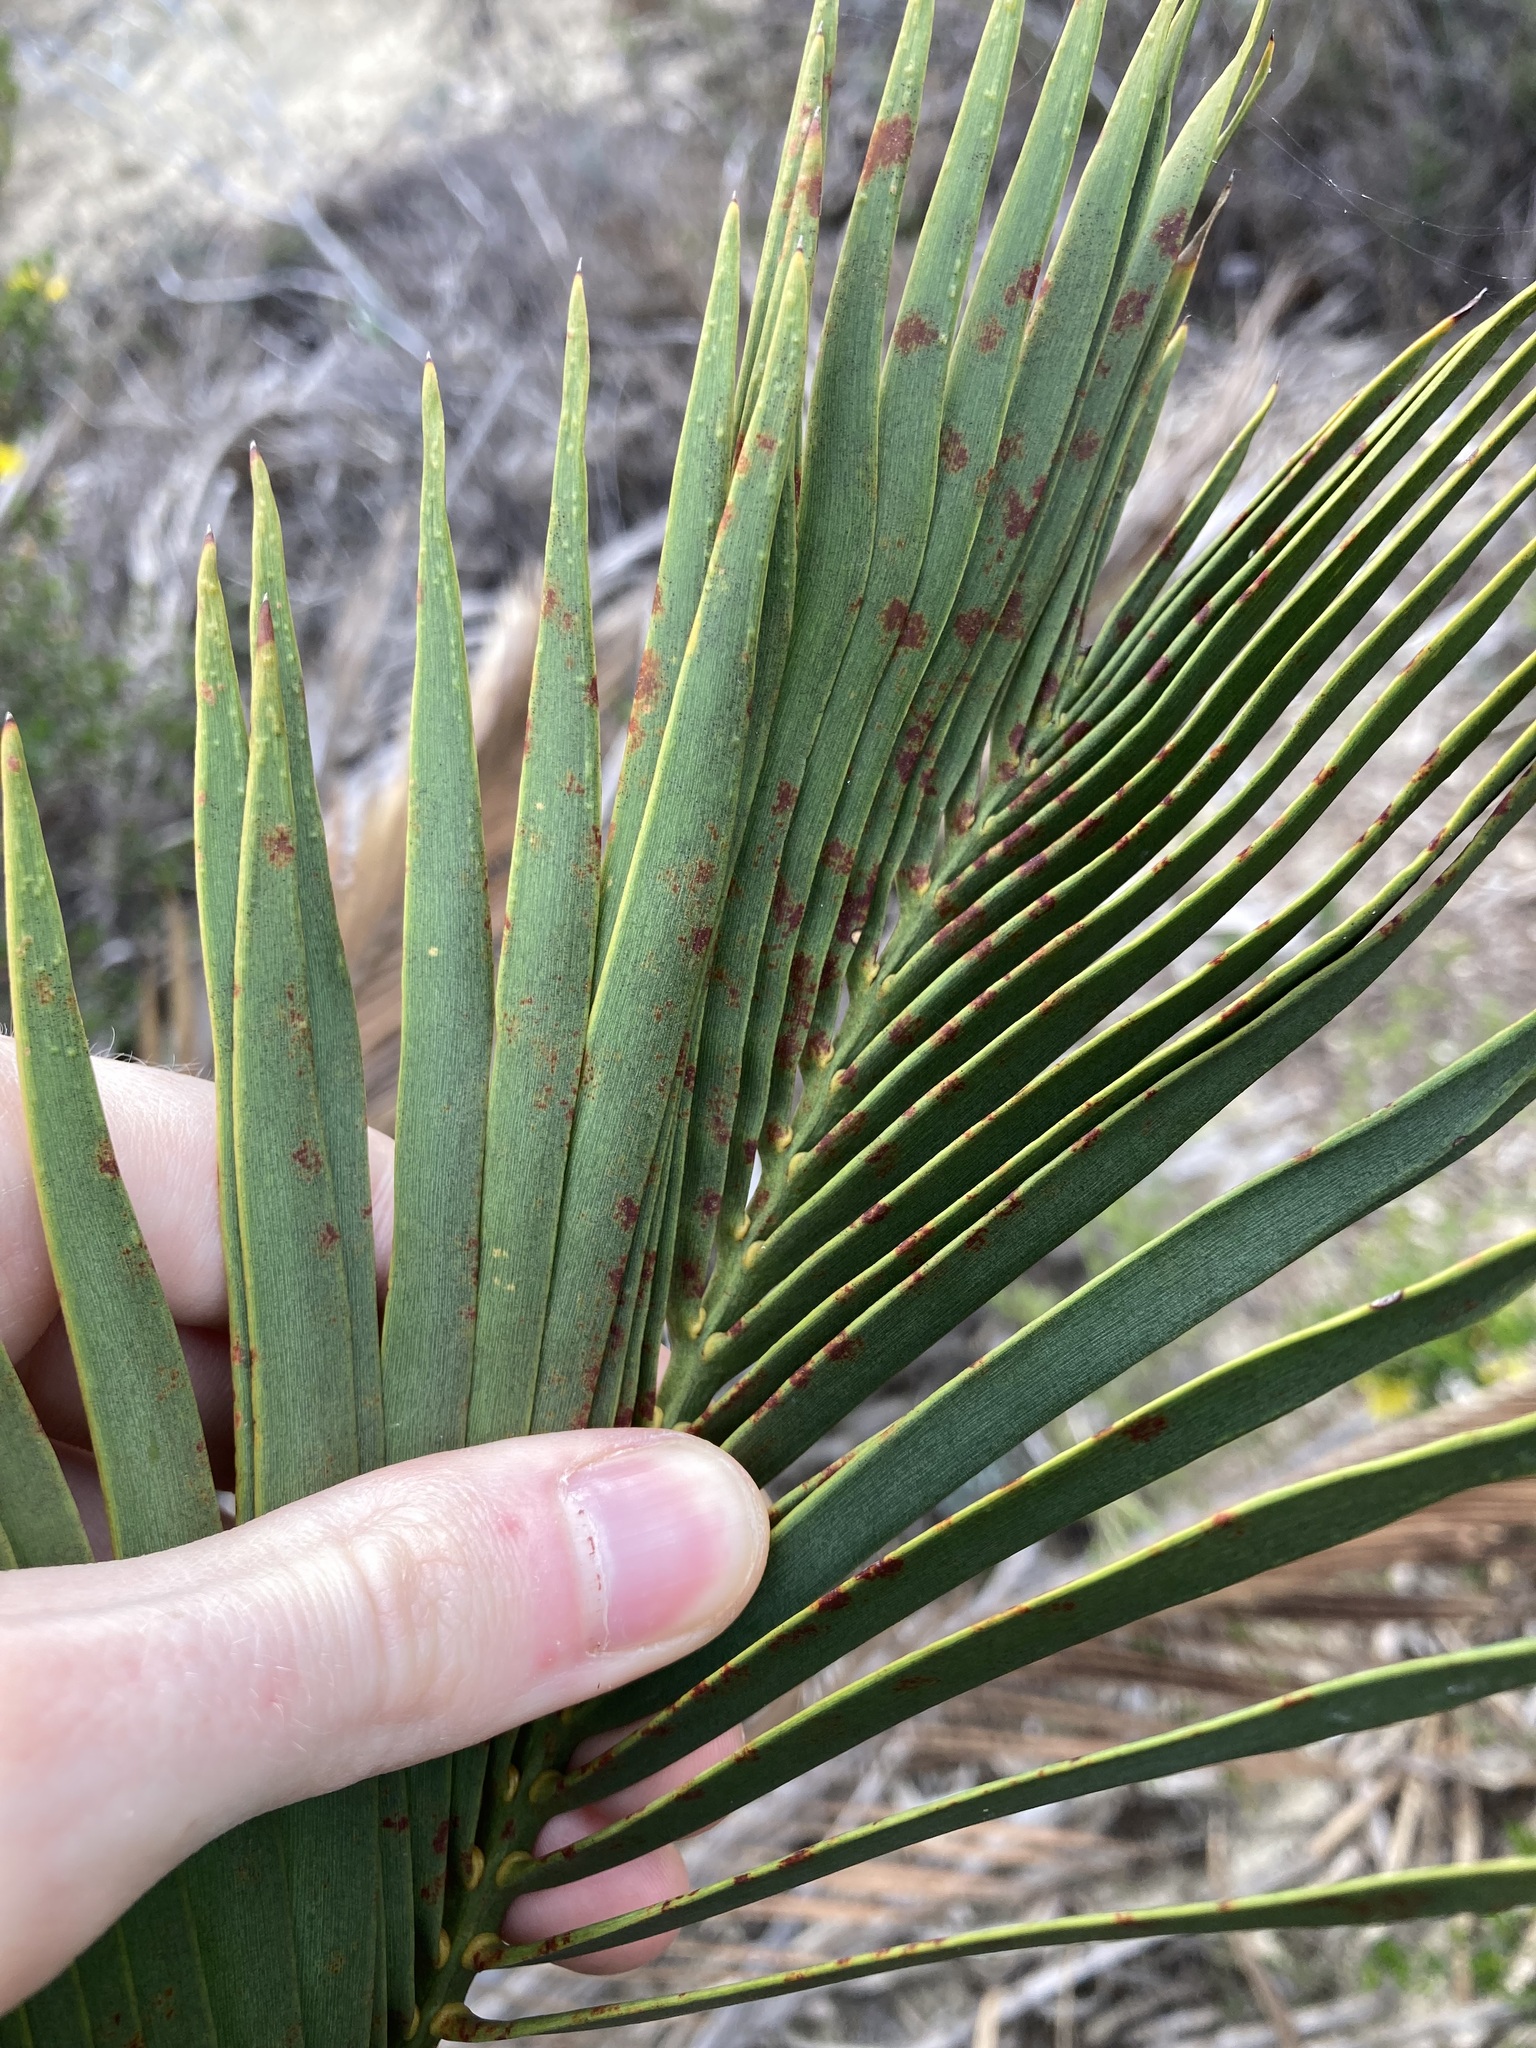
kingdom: Plantae
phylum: Tracheophyta
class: Cycadopsida
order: Cycadales
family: Zamiaceae
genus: Macrozamia
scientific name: Macrozamia fraseri
